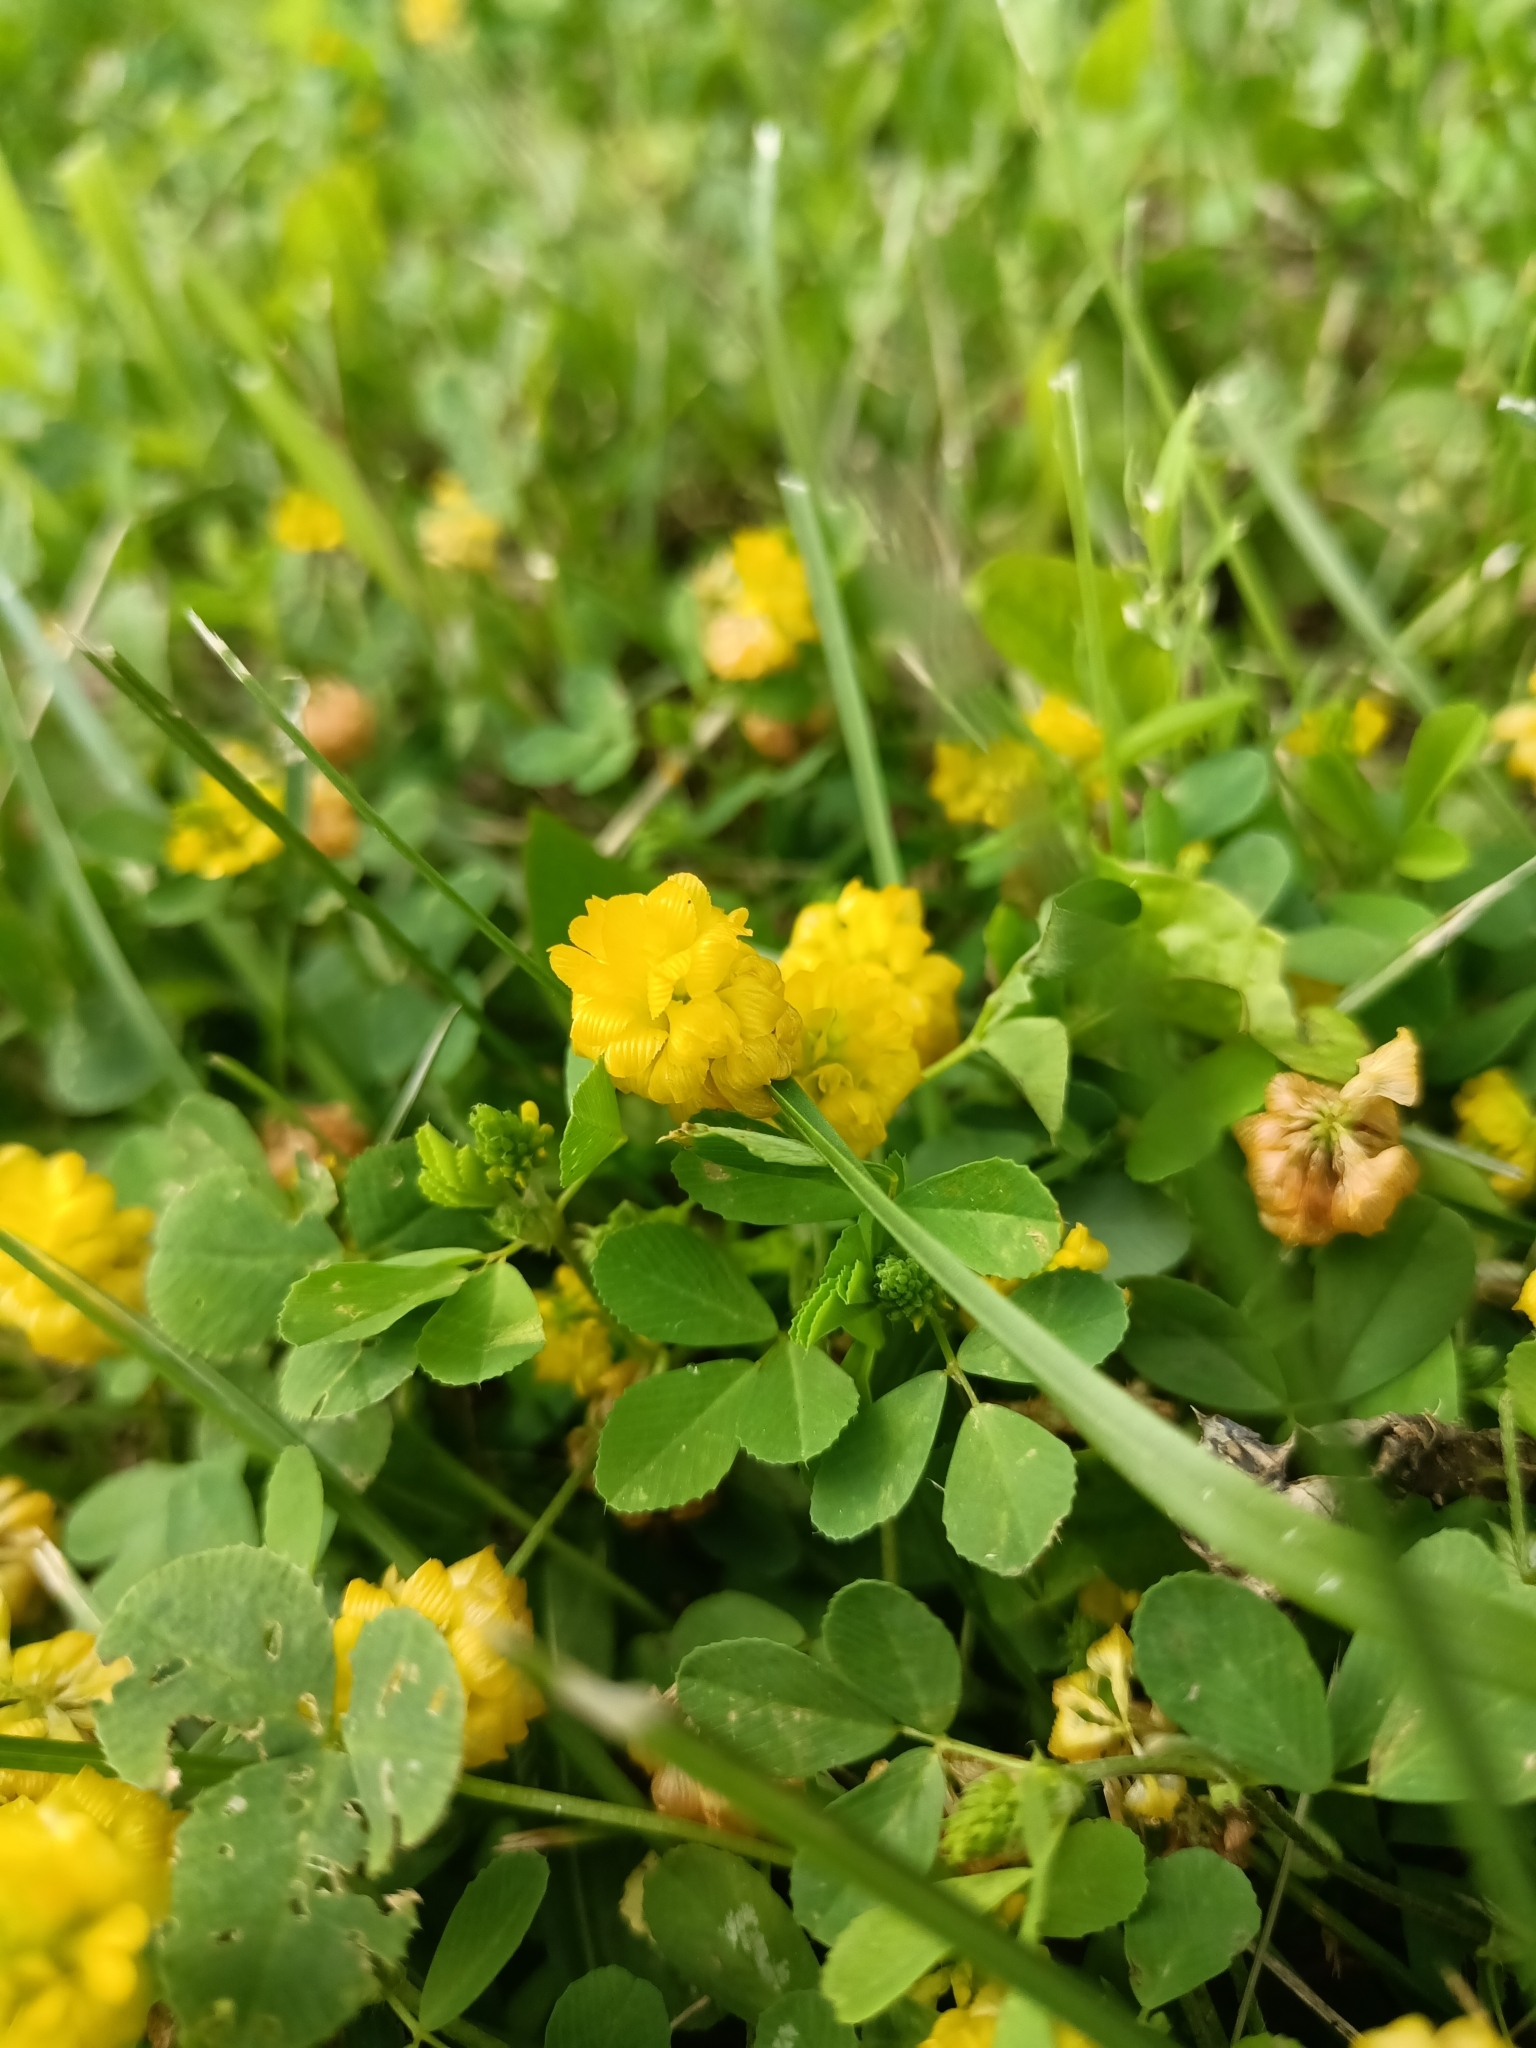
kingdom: Plantae
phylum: Tracheophyta
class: Magnoliopsida
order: Fabales
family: Fabaceae
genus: Trifolium
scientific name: Trifolium aureum
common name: Golden clover
